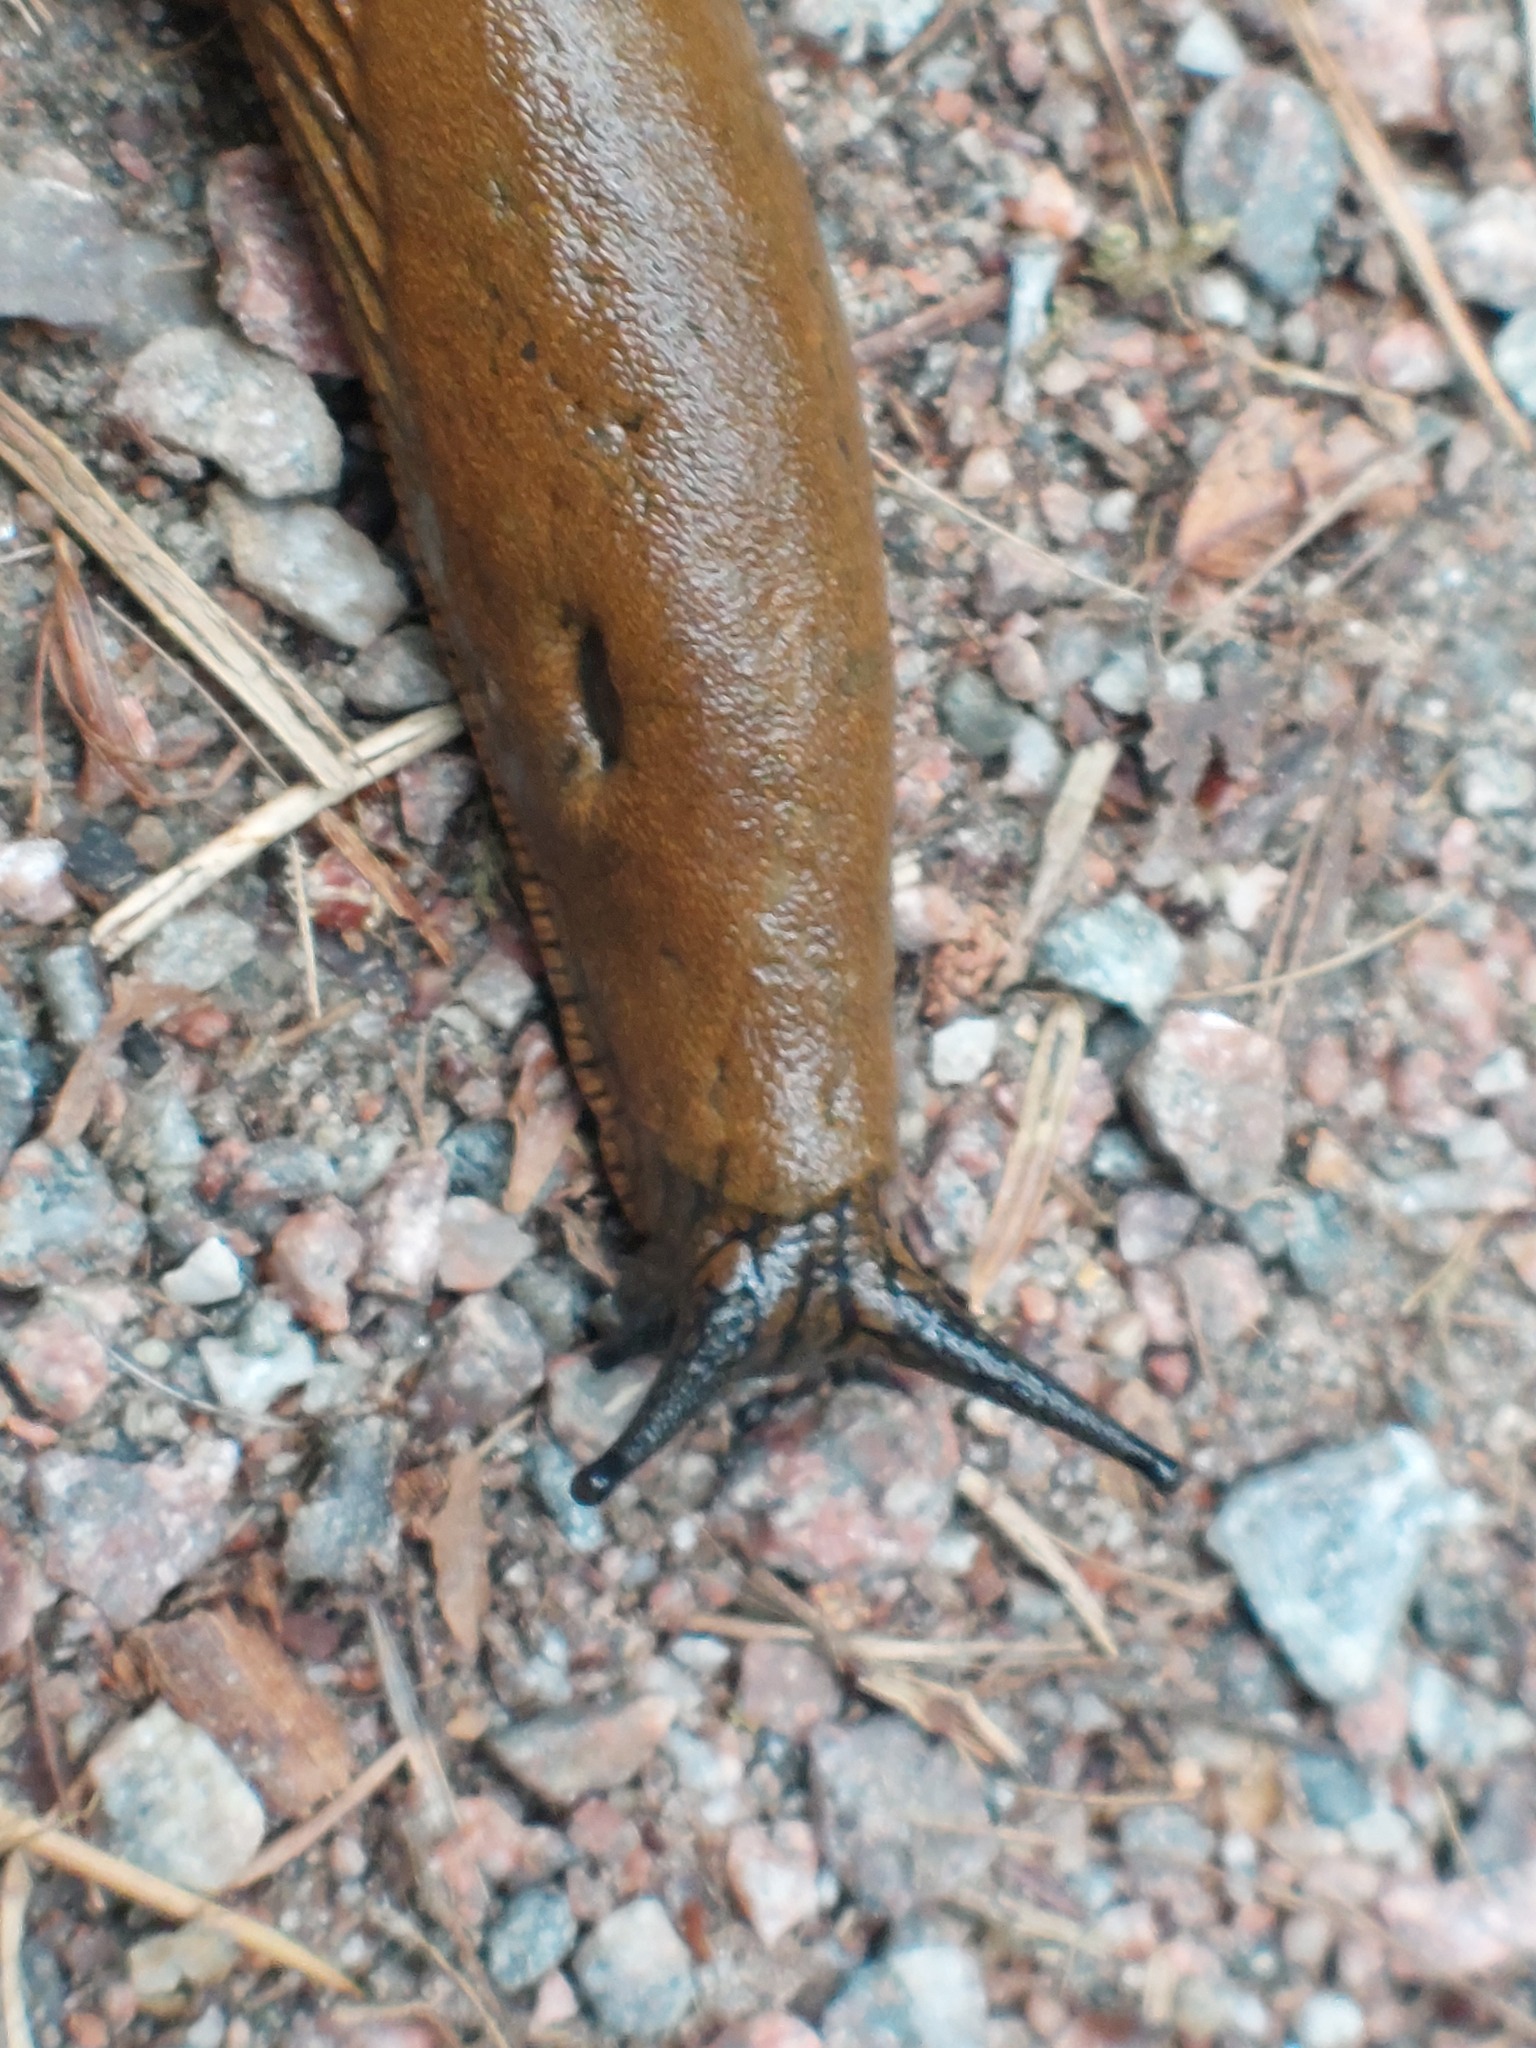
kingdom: Animalia
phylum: Mollusca
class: Gastropoda
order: Stylommatophora
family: Arionidae
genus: Arion
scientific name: Arion vulgaris
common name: Lusitanian slug
